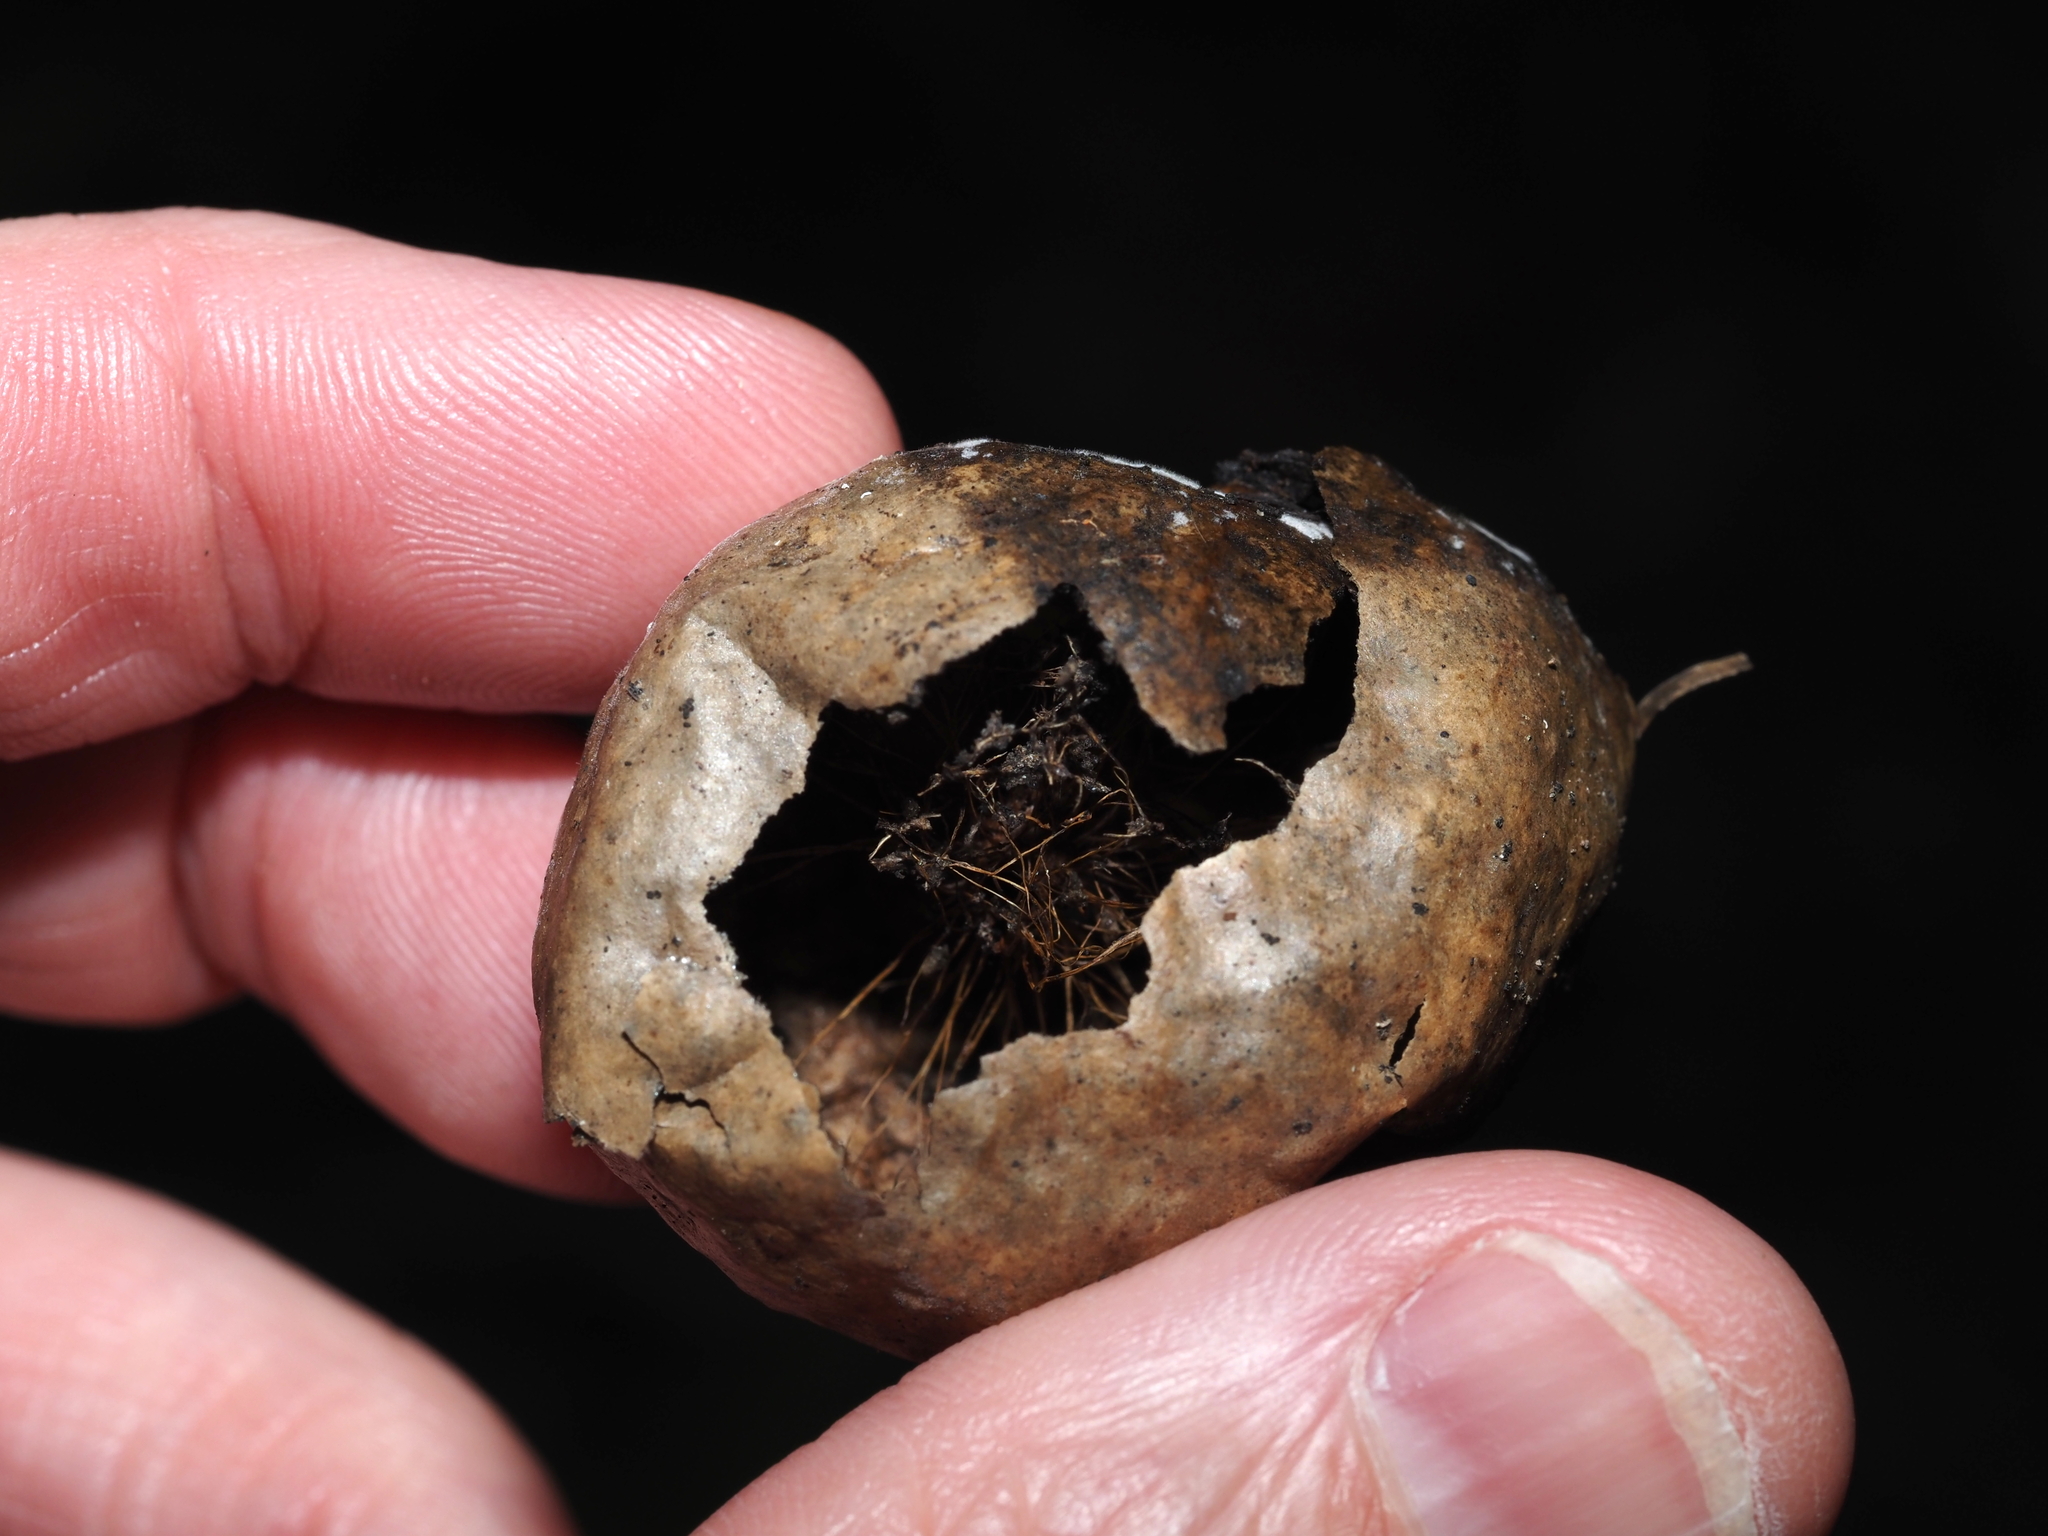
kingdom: Animalia
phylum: Arthropoda
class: Insecta
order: Hymenoptera
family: Cynipidae
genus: Amphibolips
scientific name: Amphibolips
